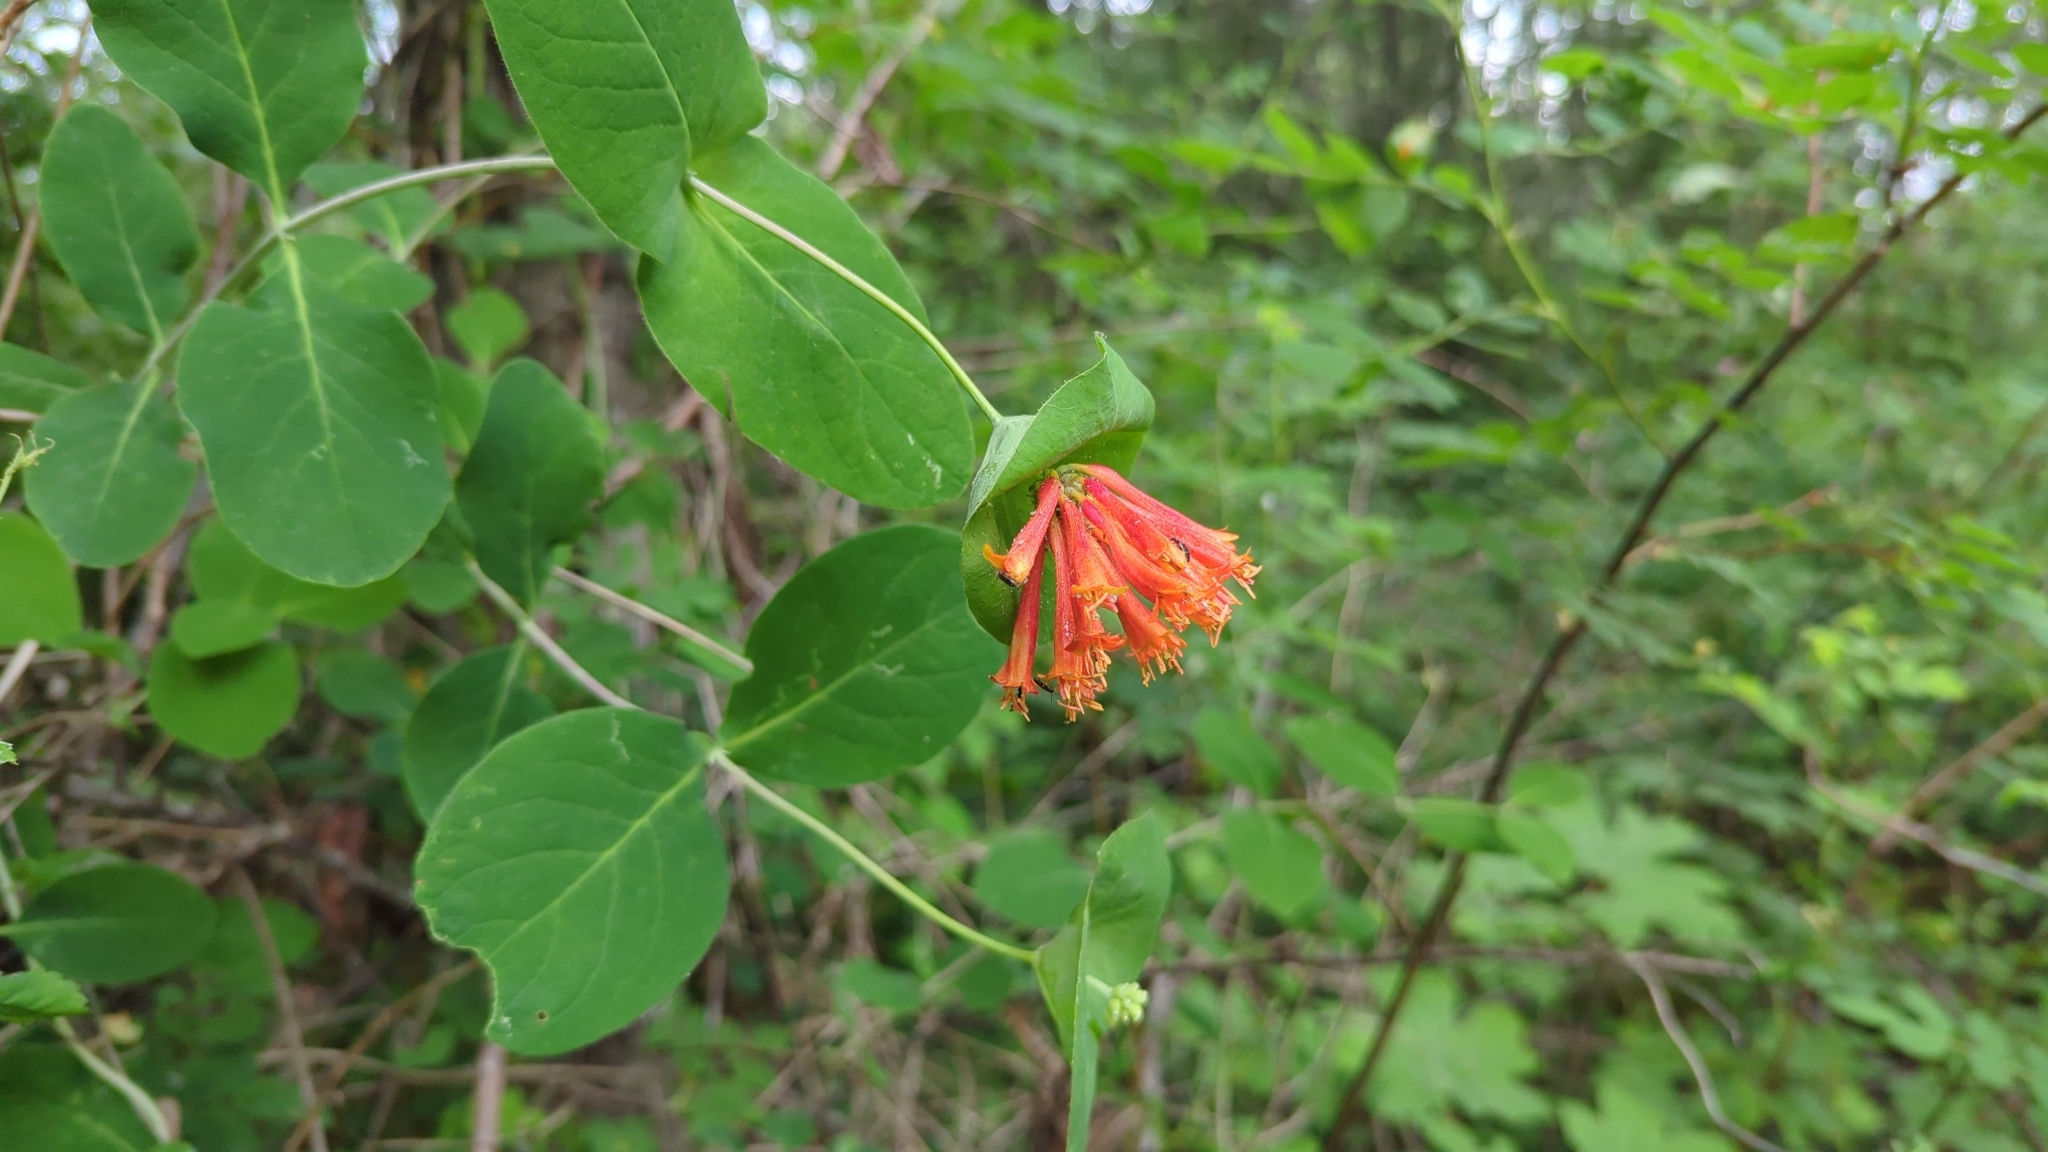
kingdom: Plantae
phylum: Tracheophyta
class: Magnoliopsida
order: Dipsacales
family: Caprifoliaceae
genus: Lonicera
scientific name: Lonicera ciliosa
